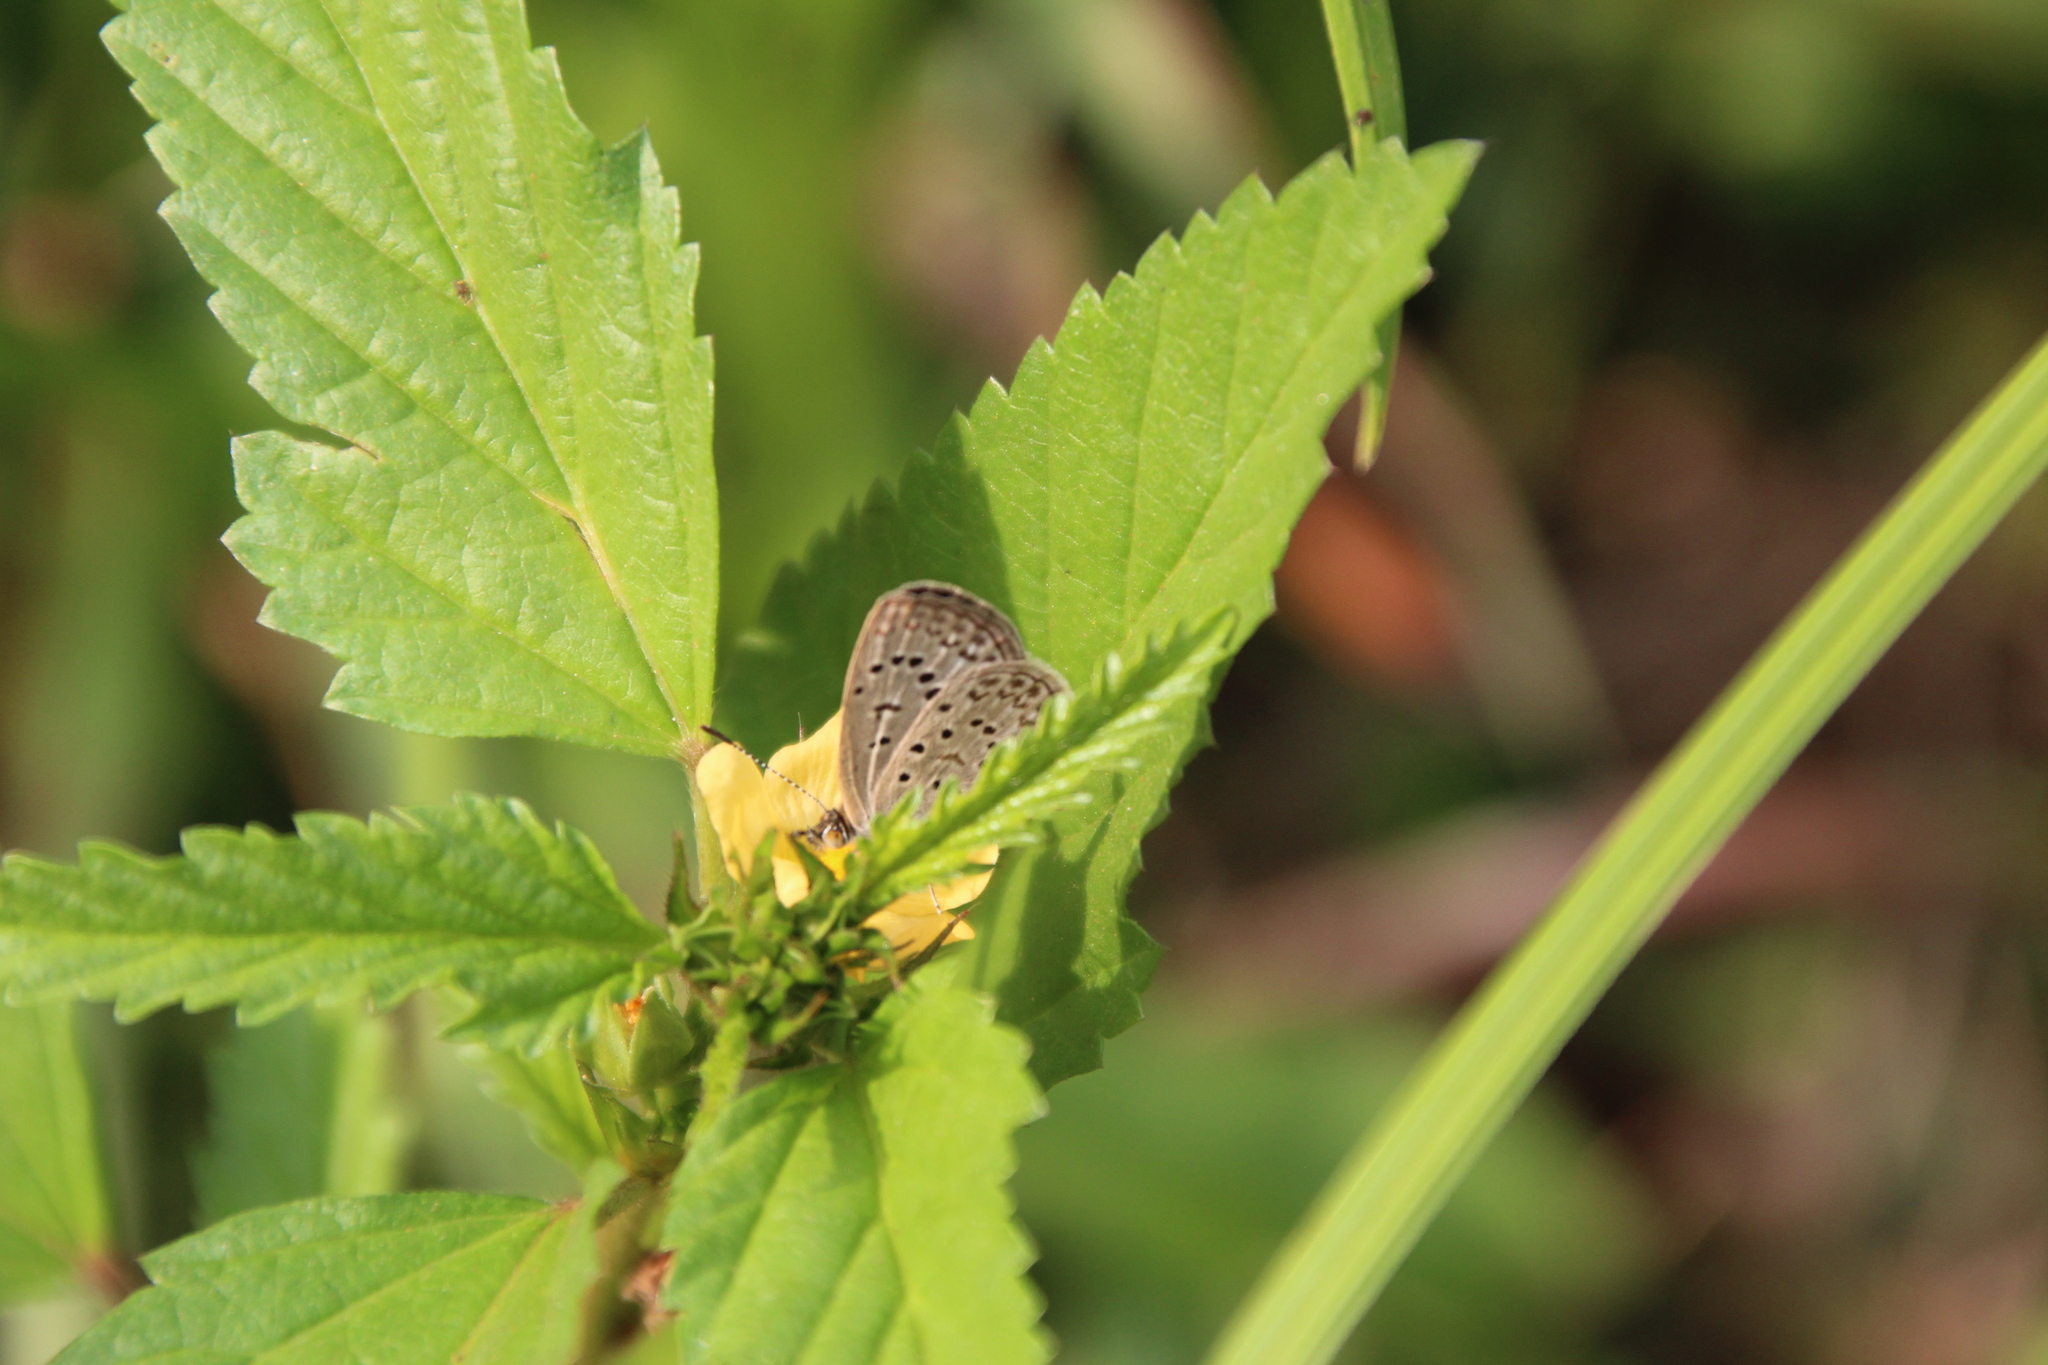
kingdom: Animalia
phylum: Arthropoda
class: Insecta
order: Lepidoptera
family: Lycaenidae
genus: Zizeeria
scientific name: Zizeeria knysna
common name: African grass blue
